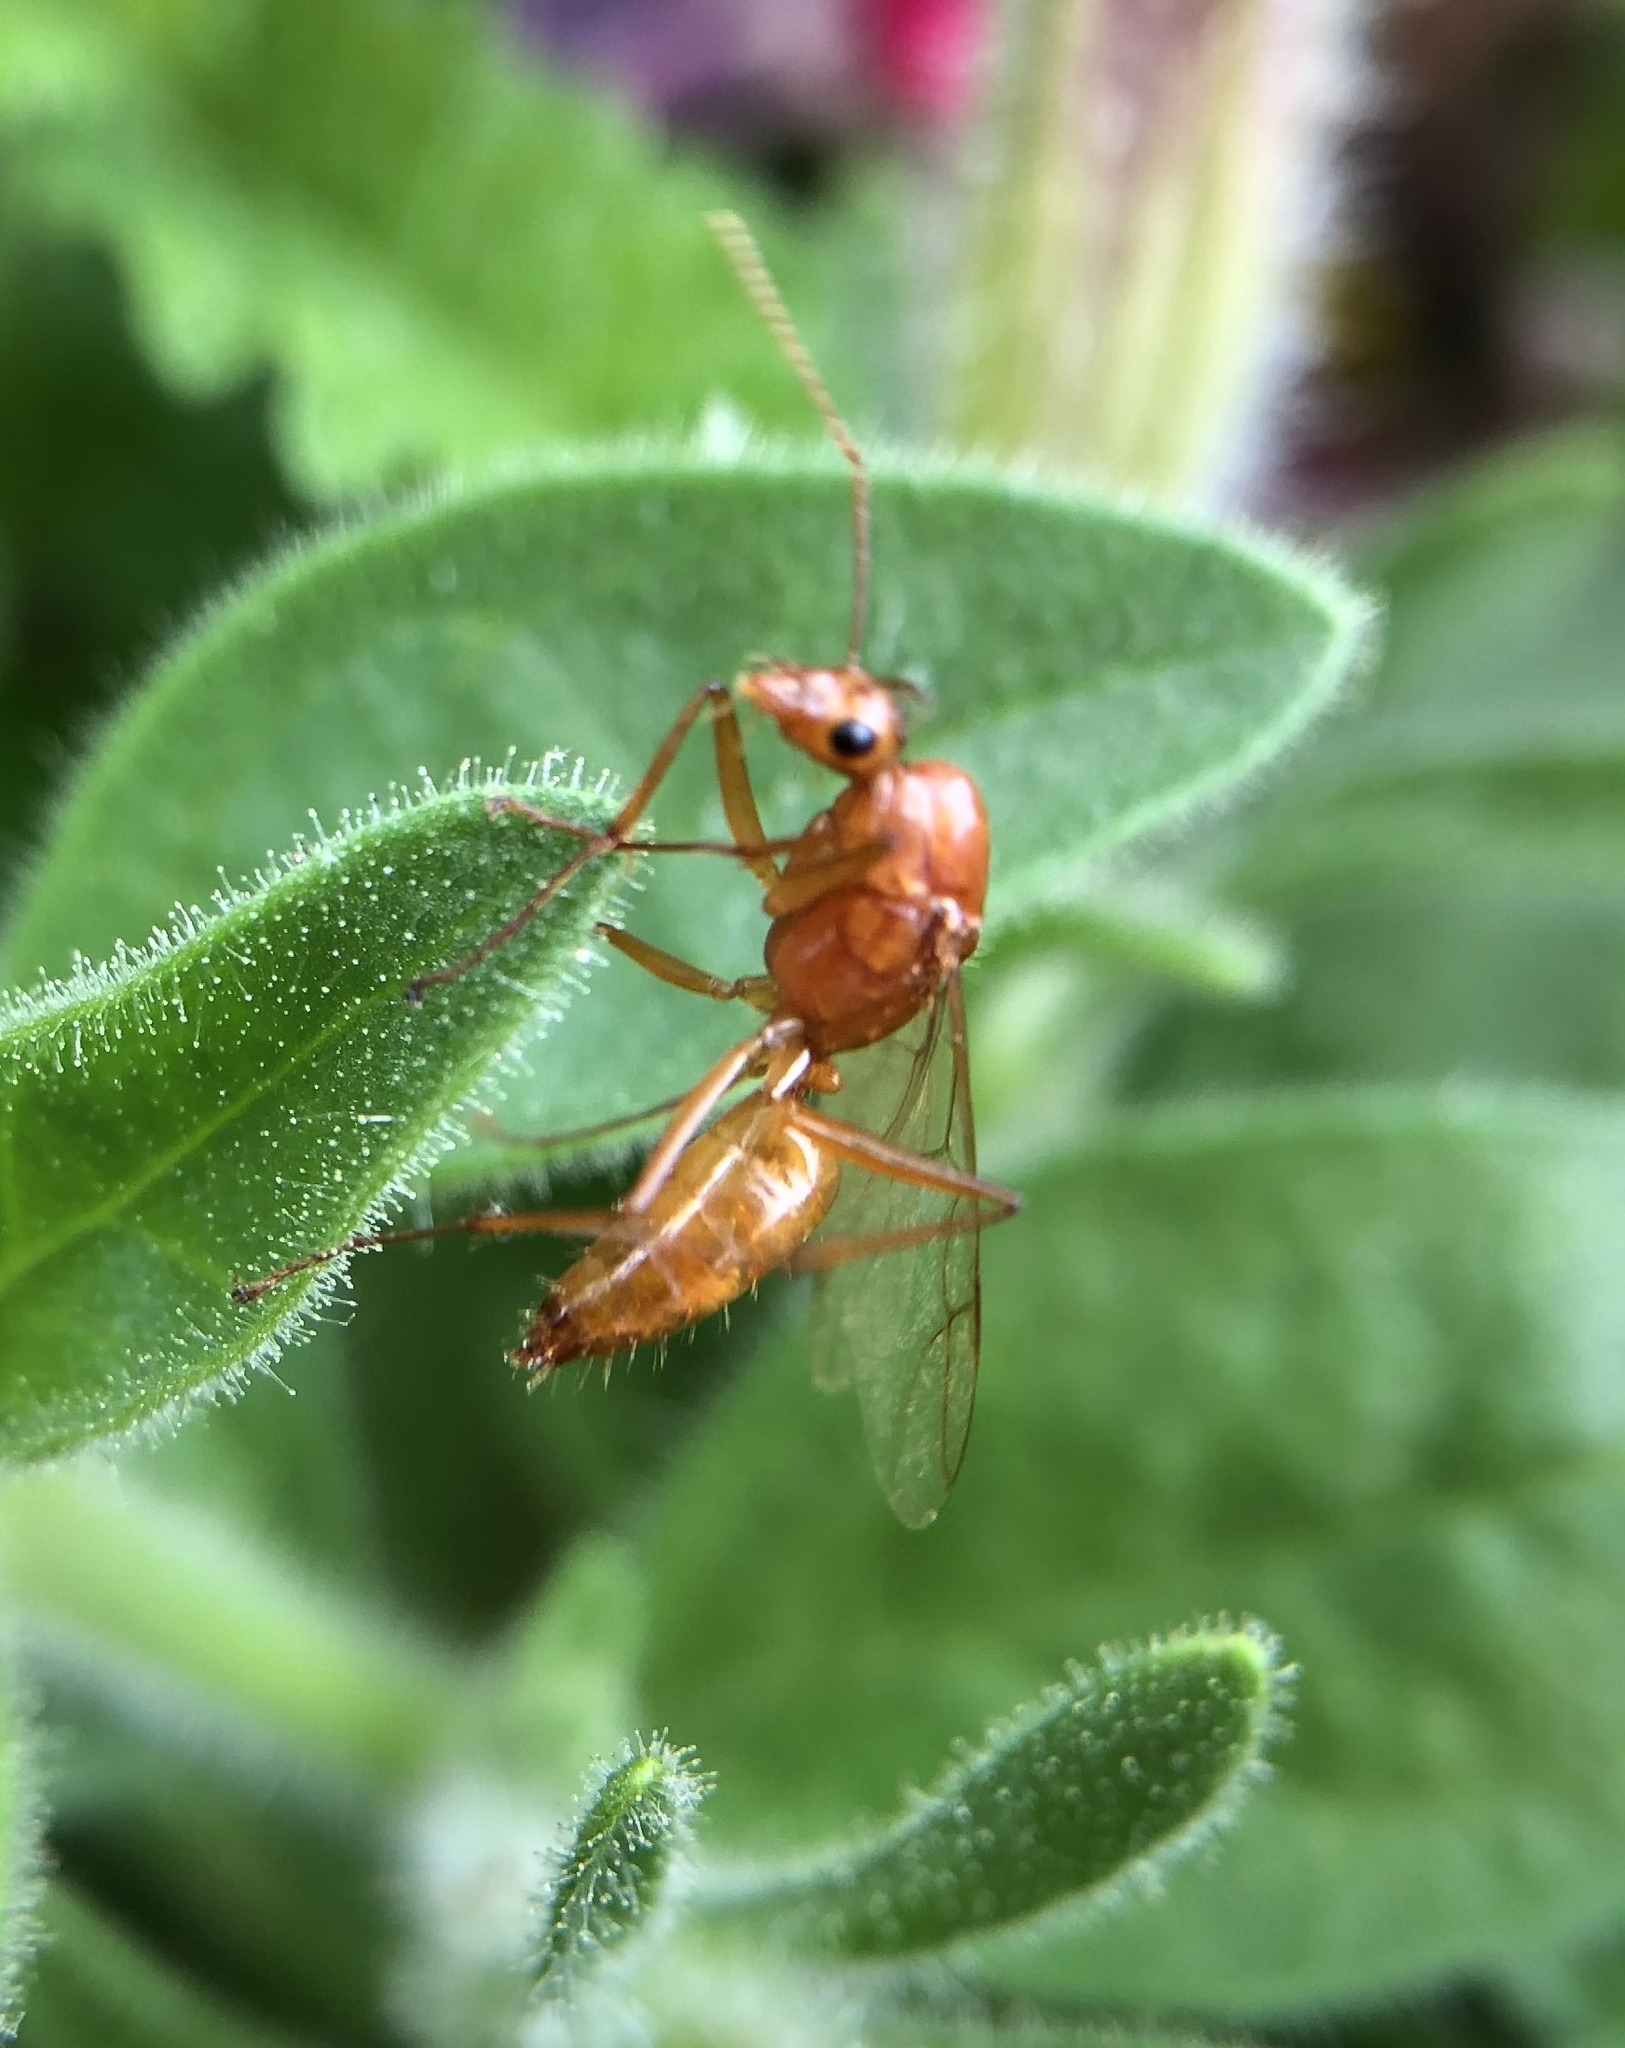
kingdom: Animalia
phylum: Arthropoda
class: Insecta
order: Hymenoptera
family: Formicidae
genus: Camponotus
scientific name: Camponotus castaneus
